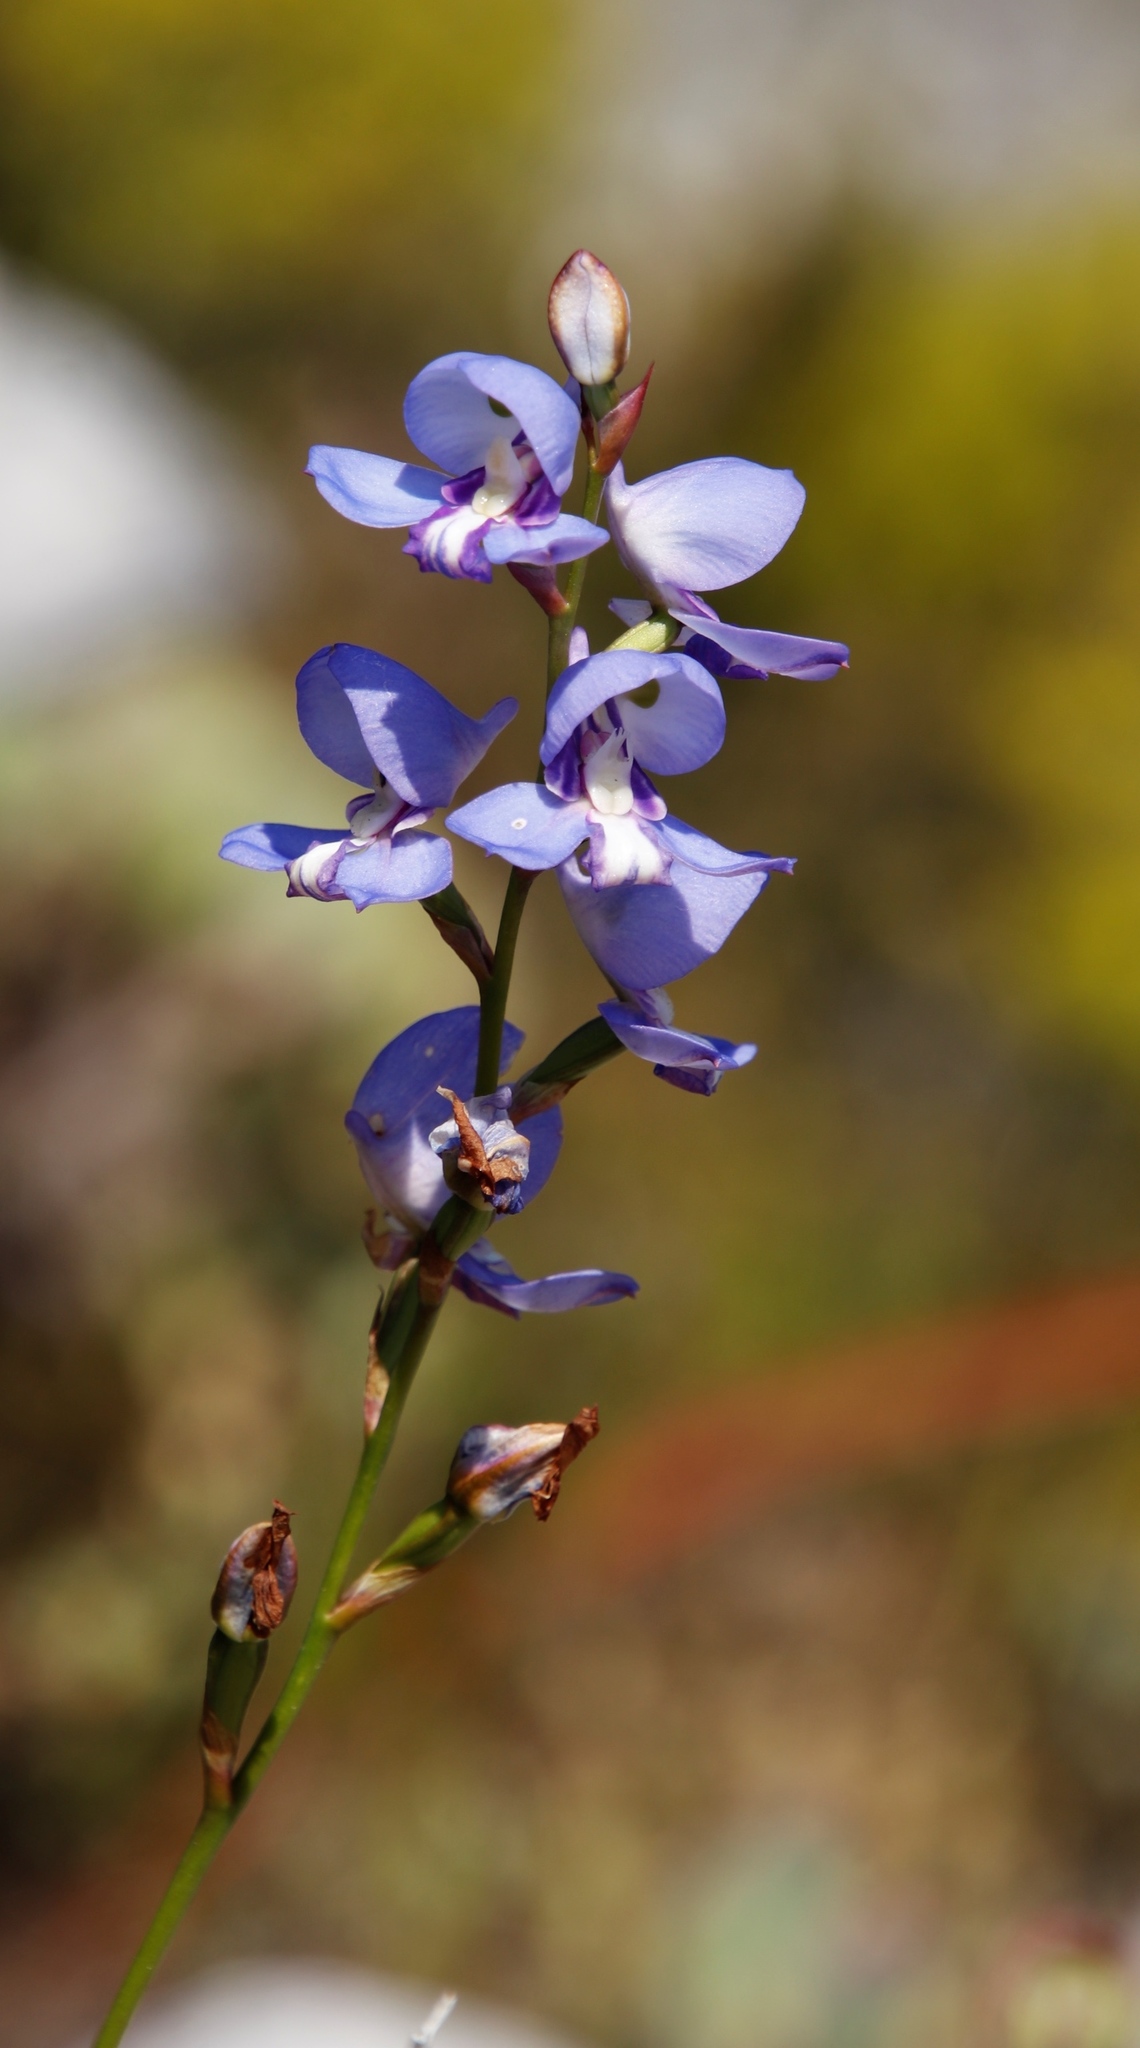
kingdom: Plantae
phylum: Tracheophyta
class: Liliopsida
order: Asparagales
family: Orchidaceae
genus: Disa
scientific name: Disa graminifolia
